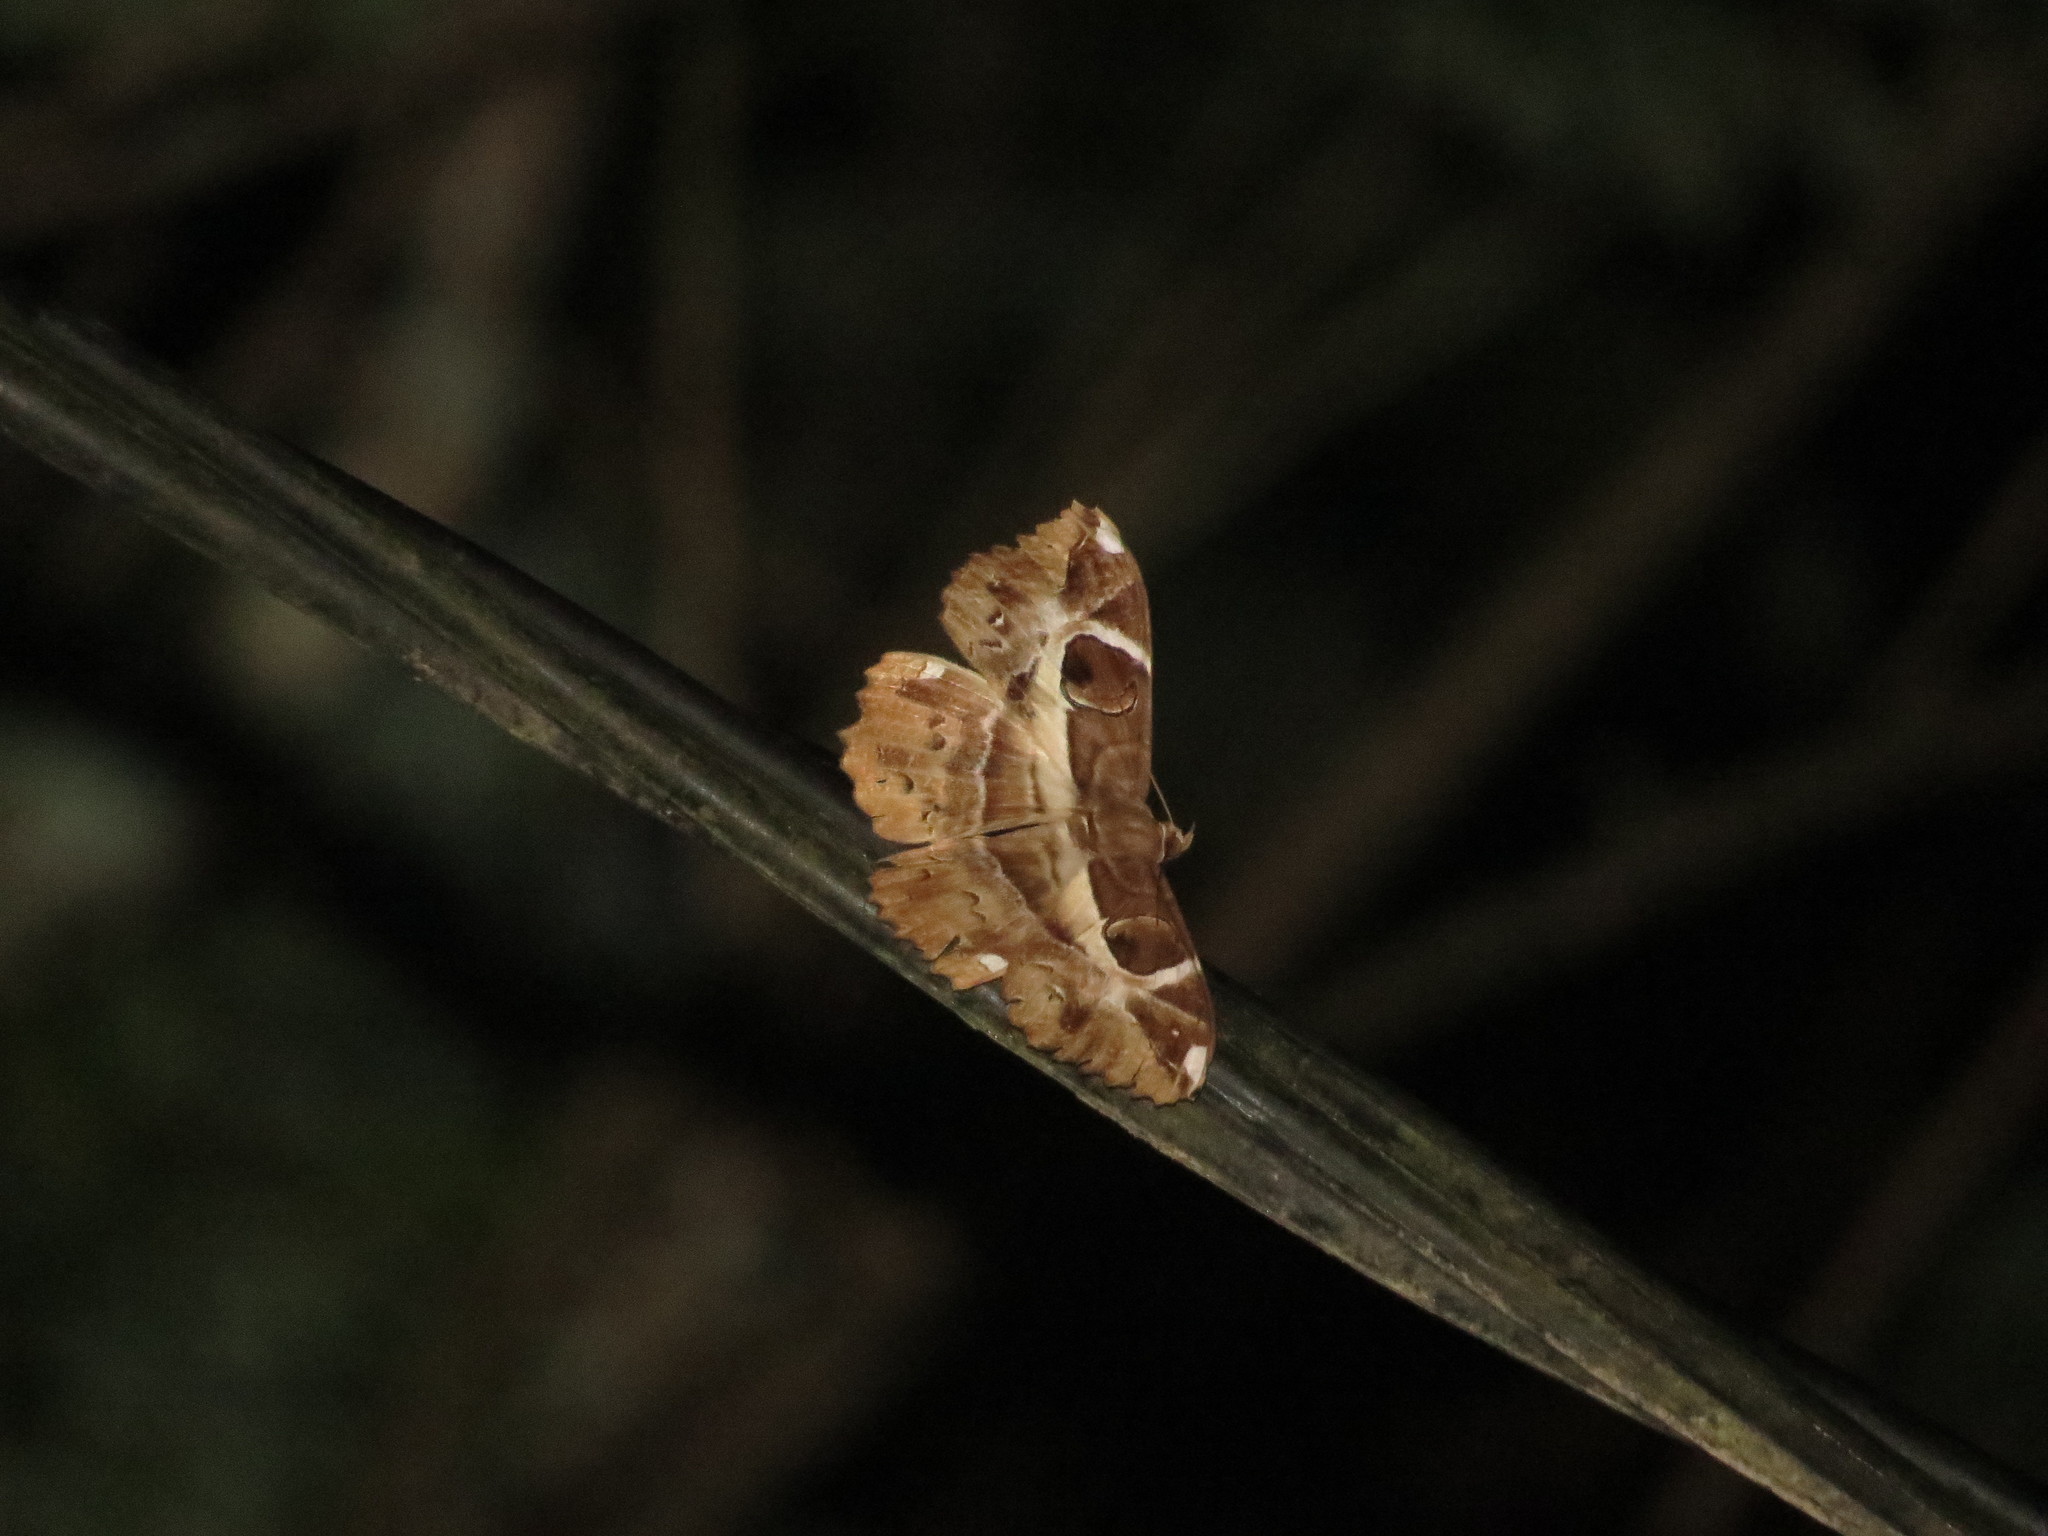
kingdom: Animalia
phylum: Arthropoda
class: Insecta
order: Lepidoptera
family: Erebidae
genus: Erebus
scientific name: Erebus ephesperis
